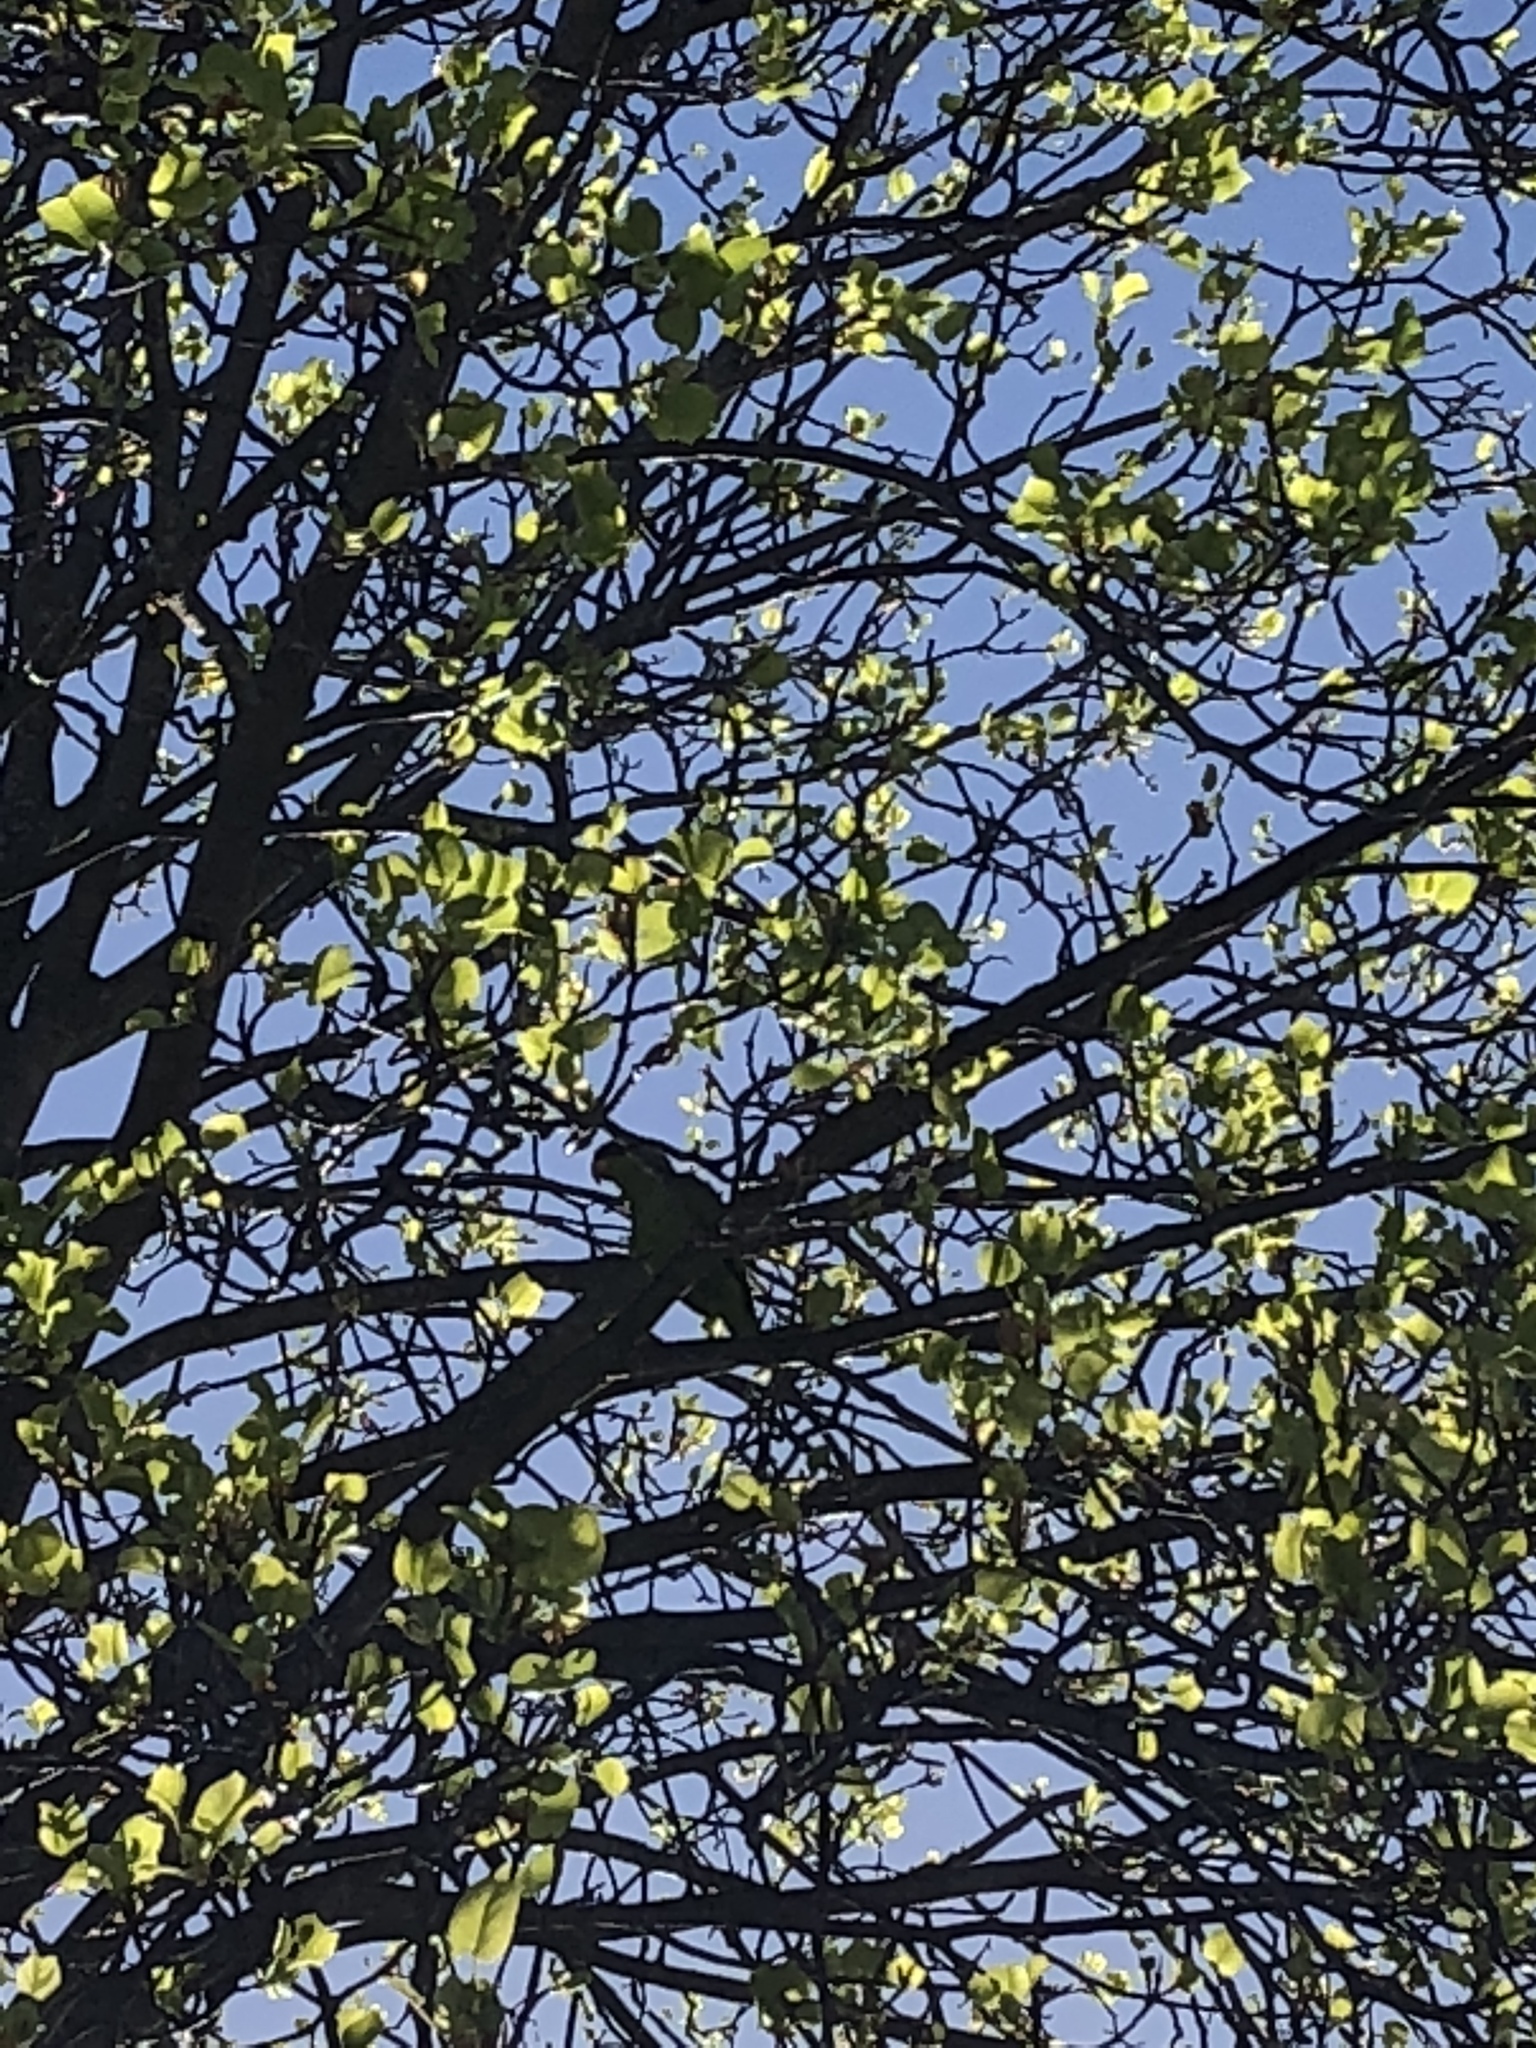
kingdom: Animalia
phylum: Chordata
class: Aves
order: Psittaciformes
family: Psittacidae
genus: Amazona
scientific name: Amazona finschi
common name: Lilac-crowned amazon
